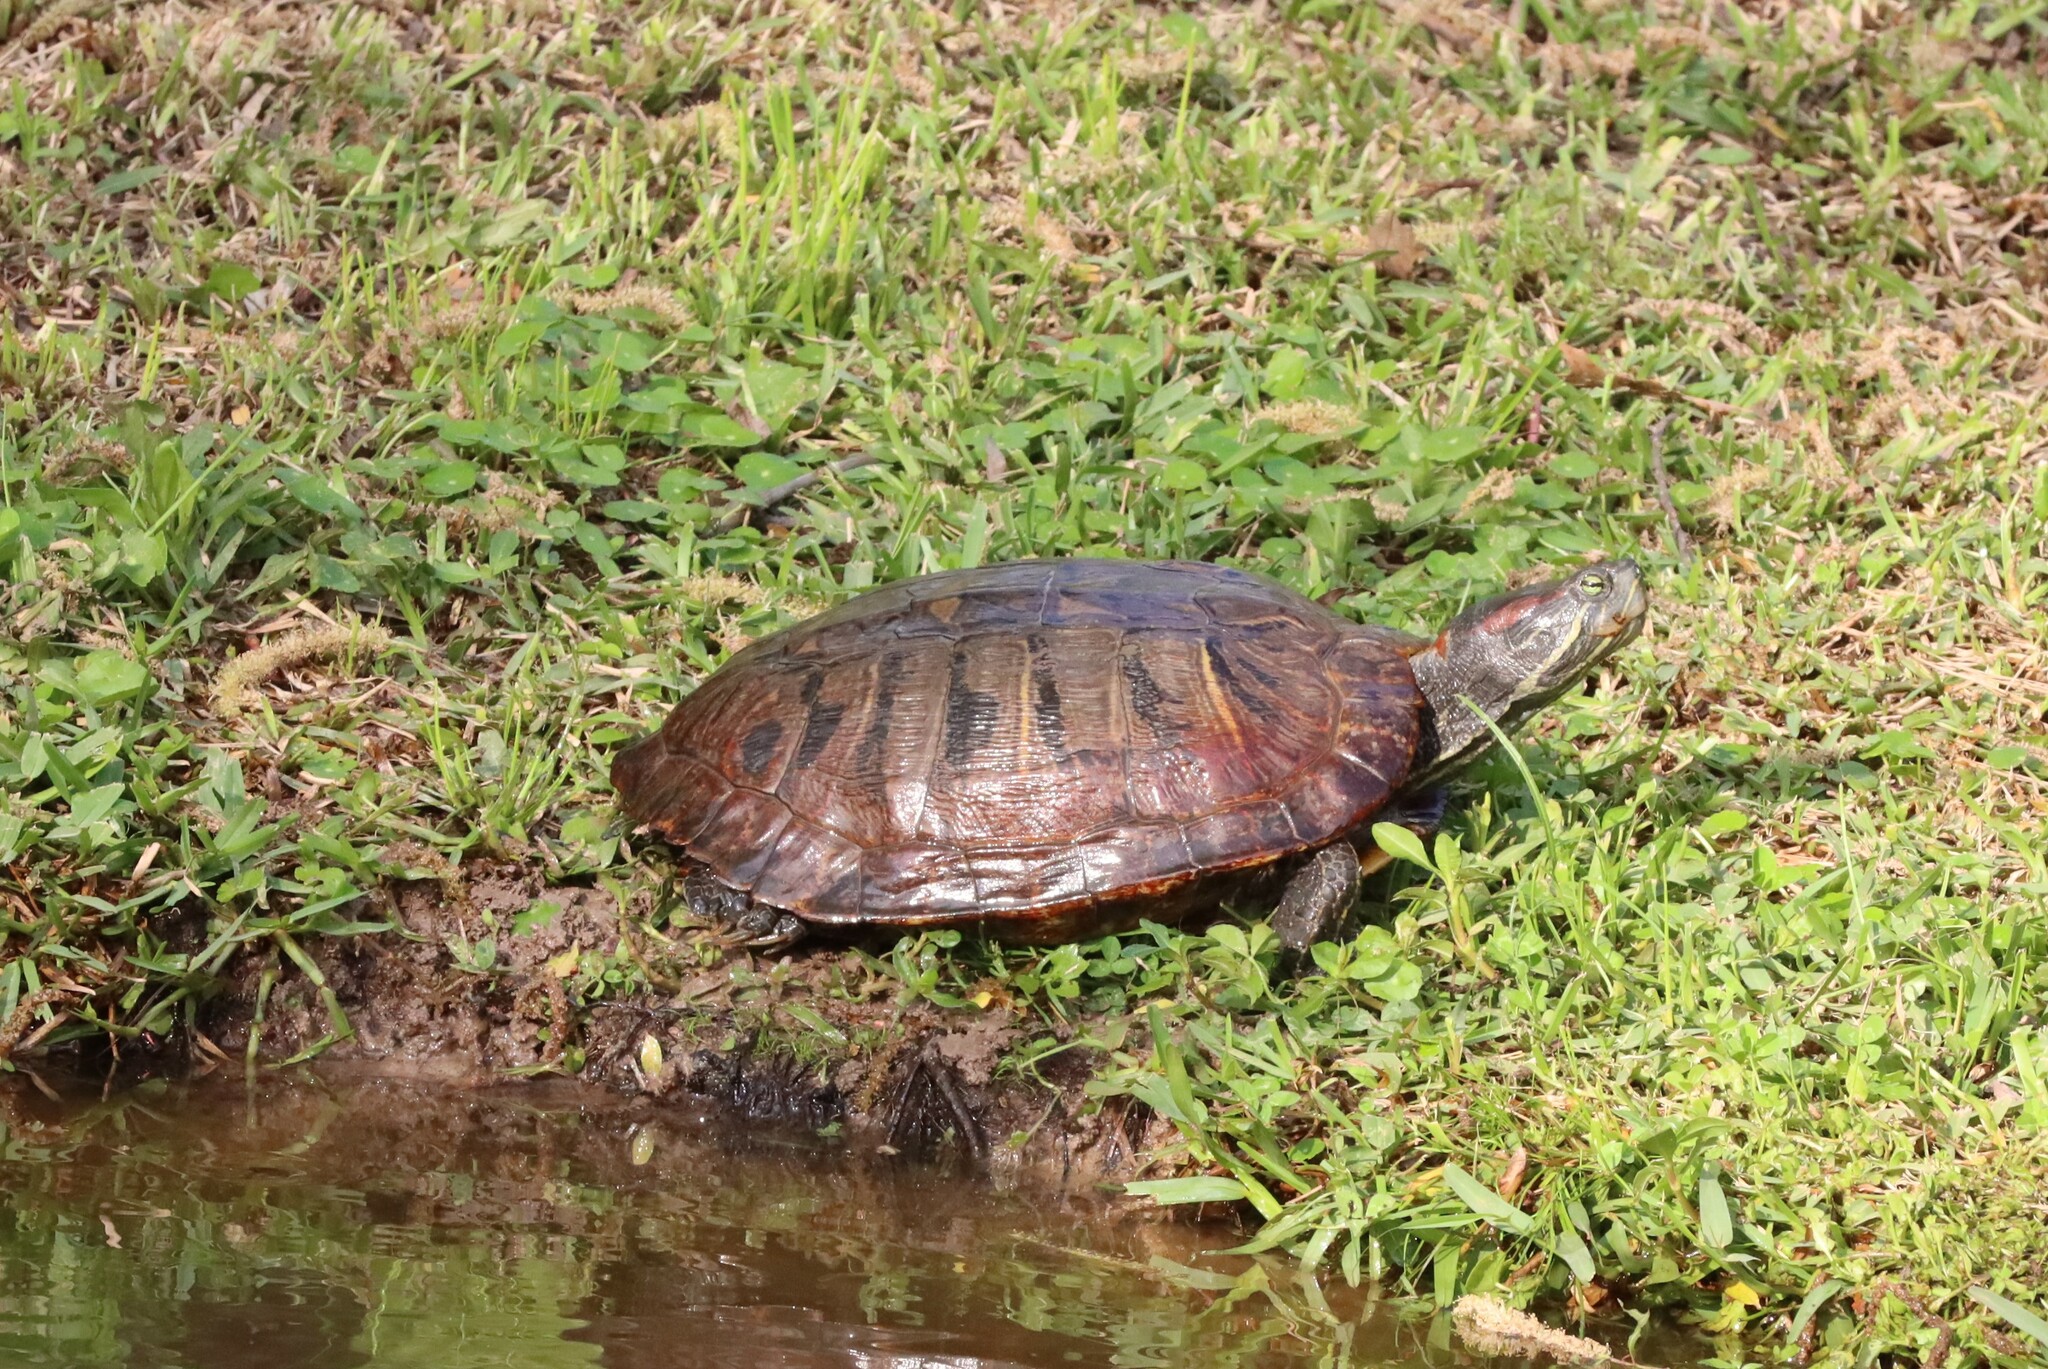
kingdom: Animalia
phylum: Chordata
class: Testudines
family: Emydidae
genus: Trachemys
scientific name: Trachemys scripta
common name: Slider
